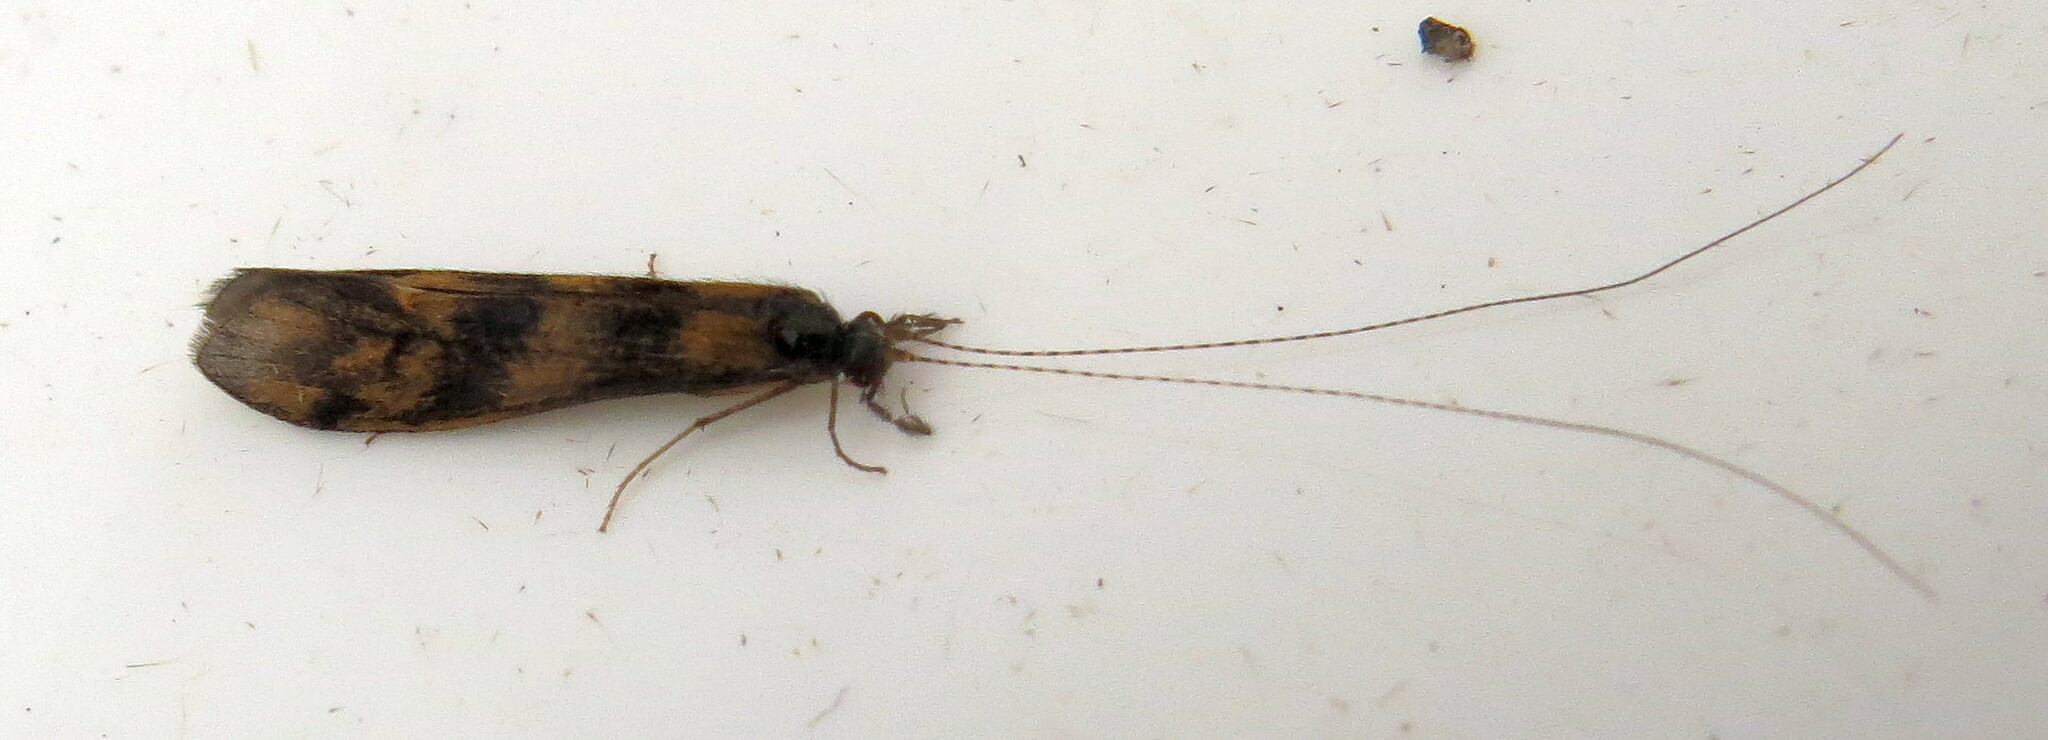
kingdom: Animalia
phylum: Arthropoda
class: Insecta
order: Trichoptera
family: Leptoceridae
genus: Mystacides
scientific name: Mystacides longicornis
